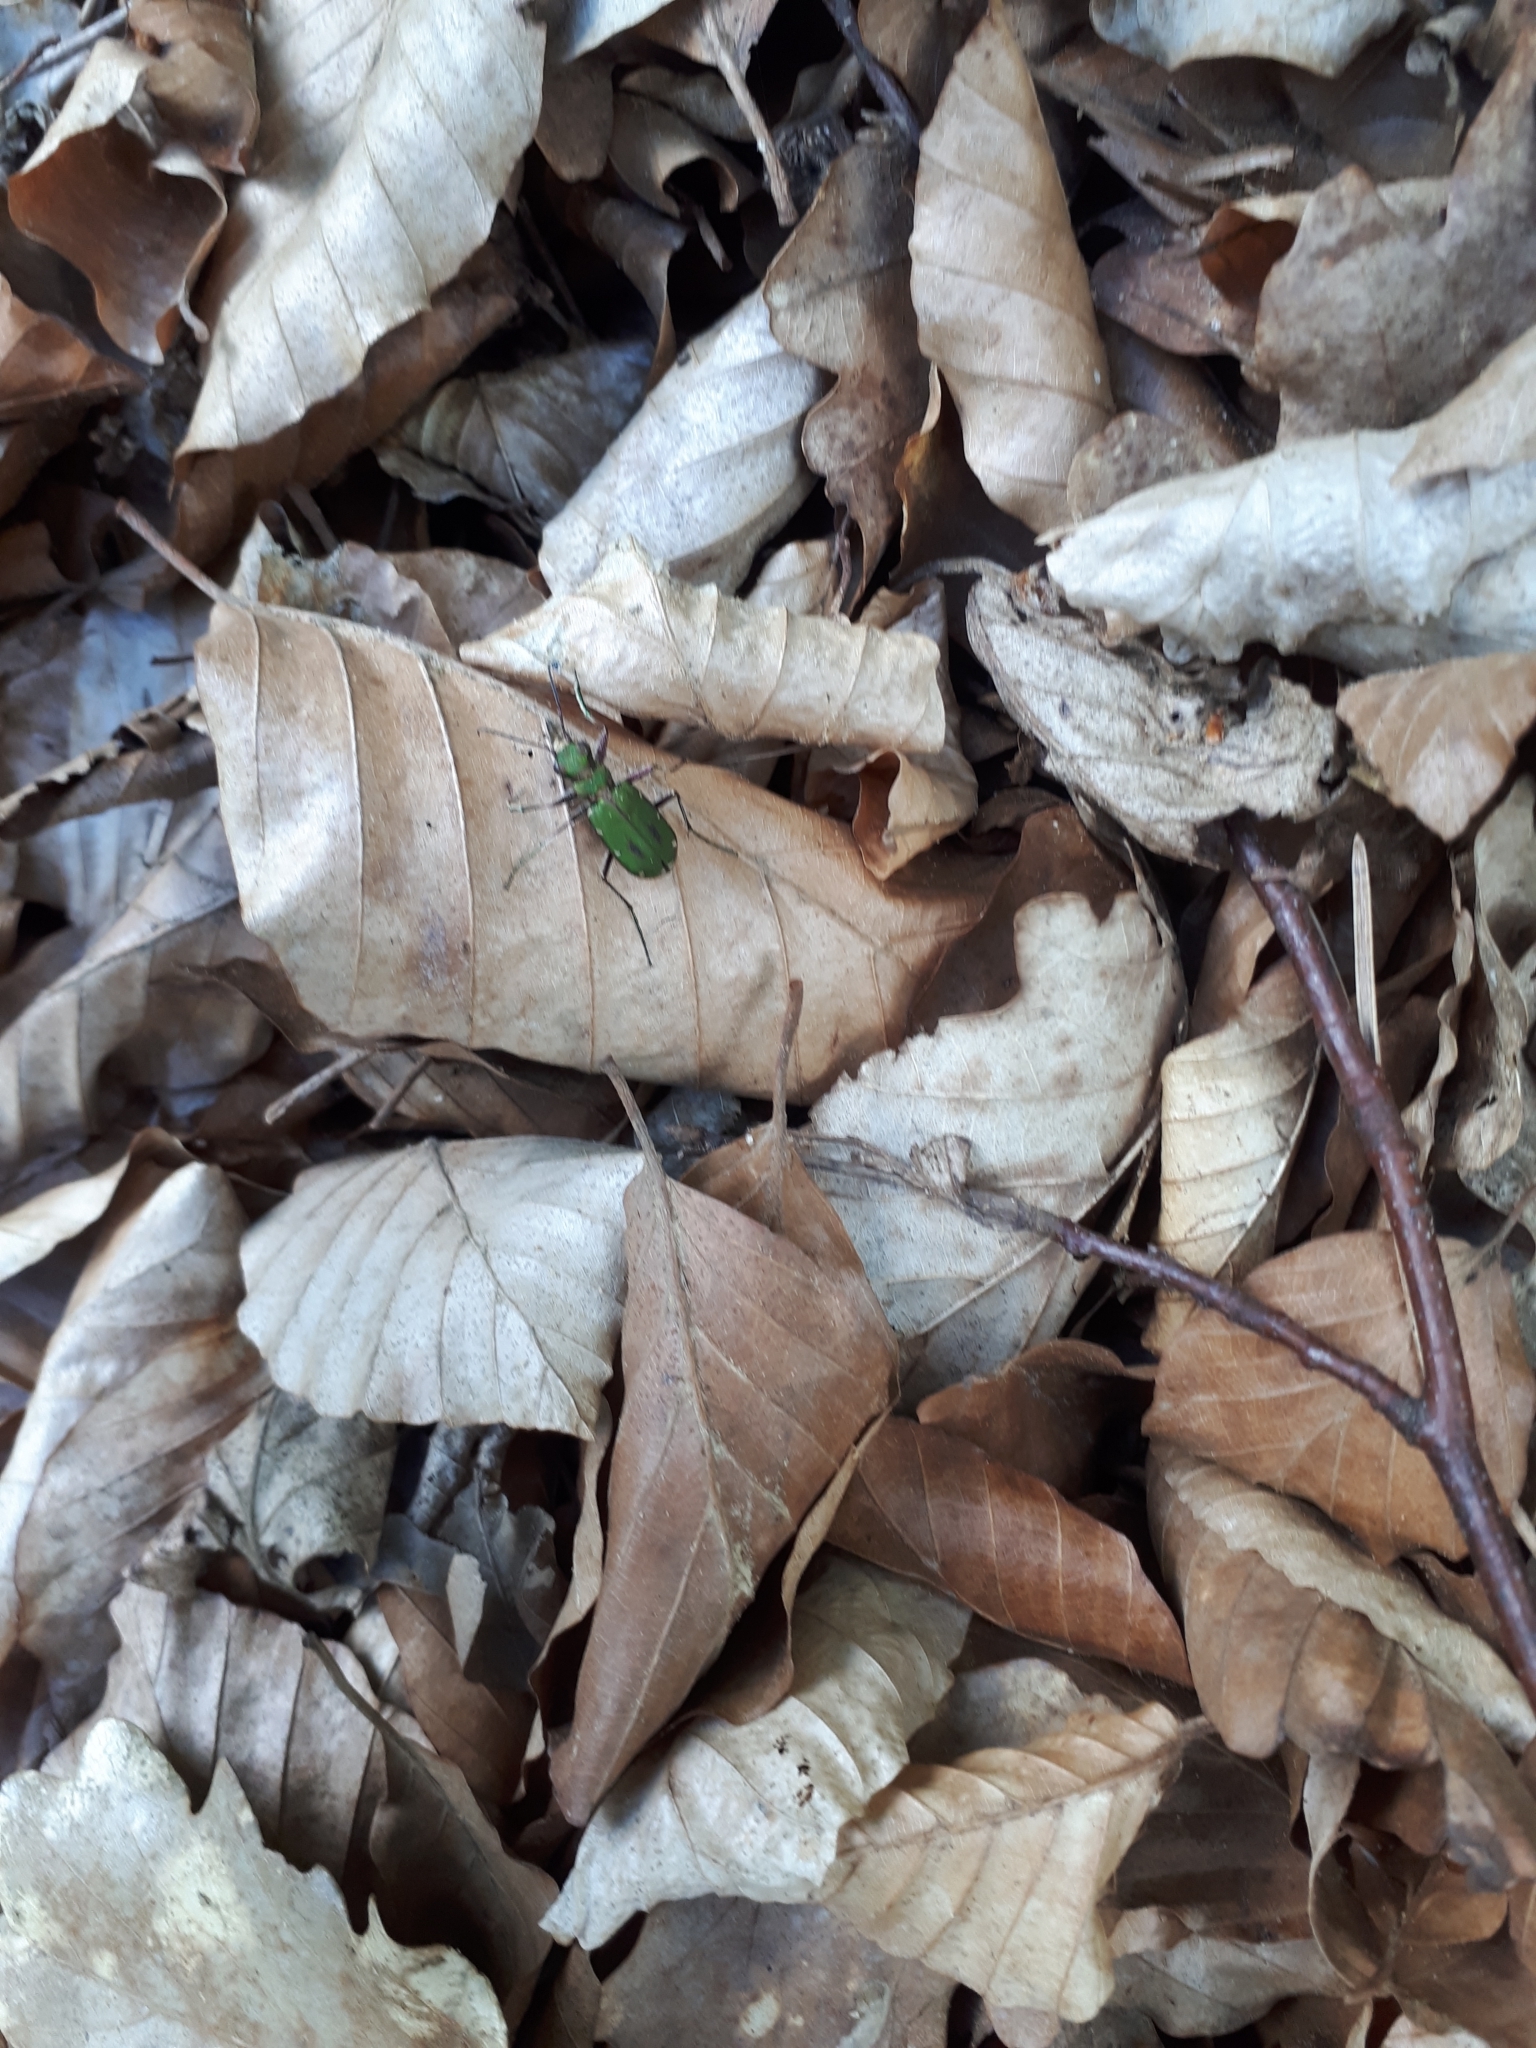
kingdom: Animalia
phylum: Arthropoda
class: Insecta
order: Coleoptera
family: Carabidae
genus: Cicindela
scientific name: Cicindela campestris
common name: Common tiger beetle
